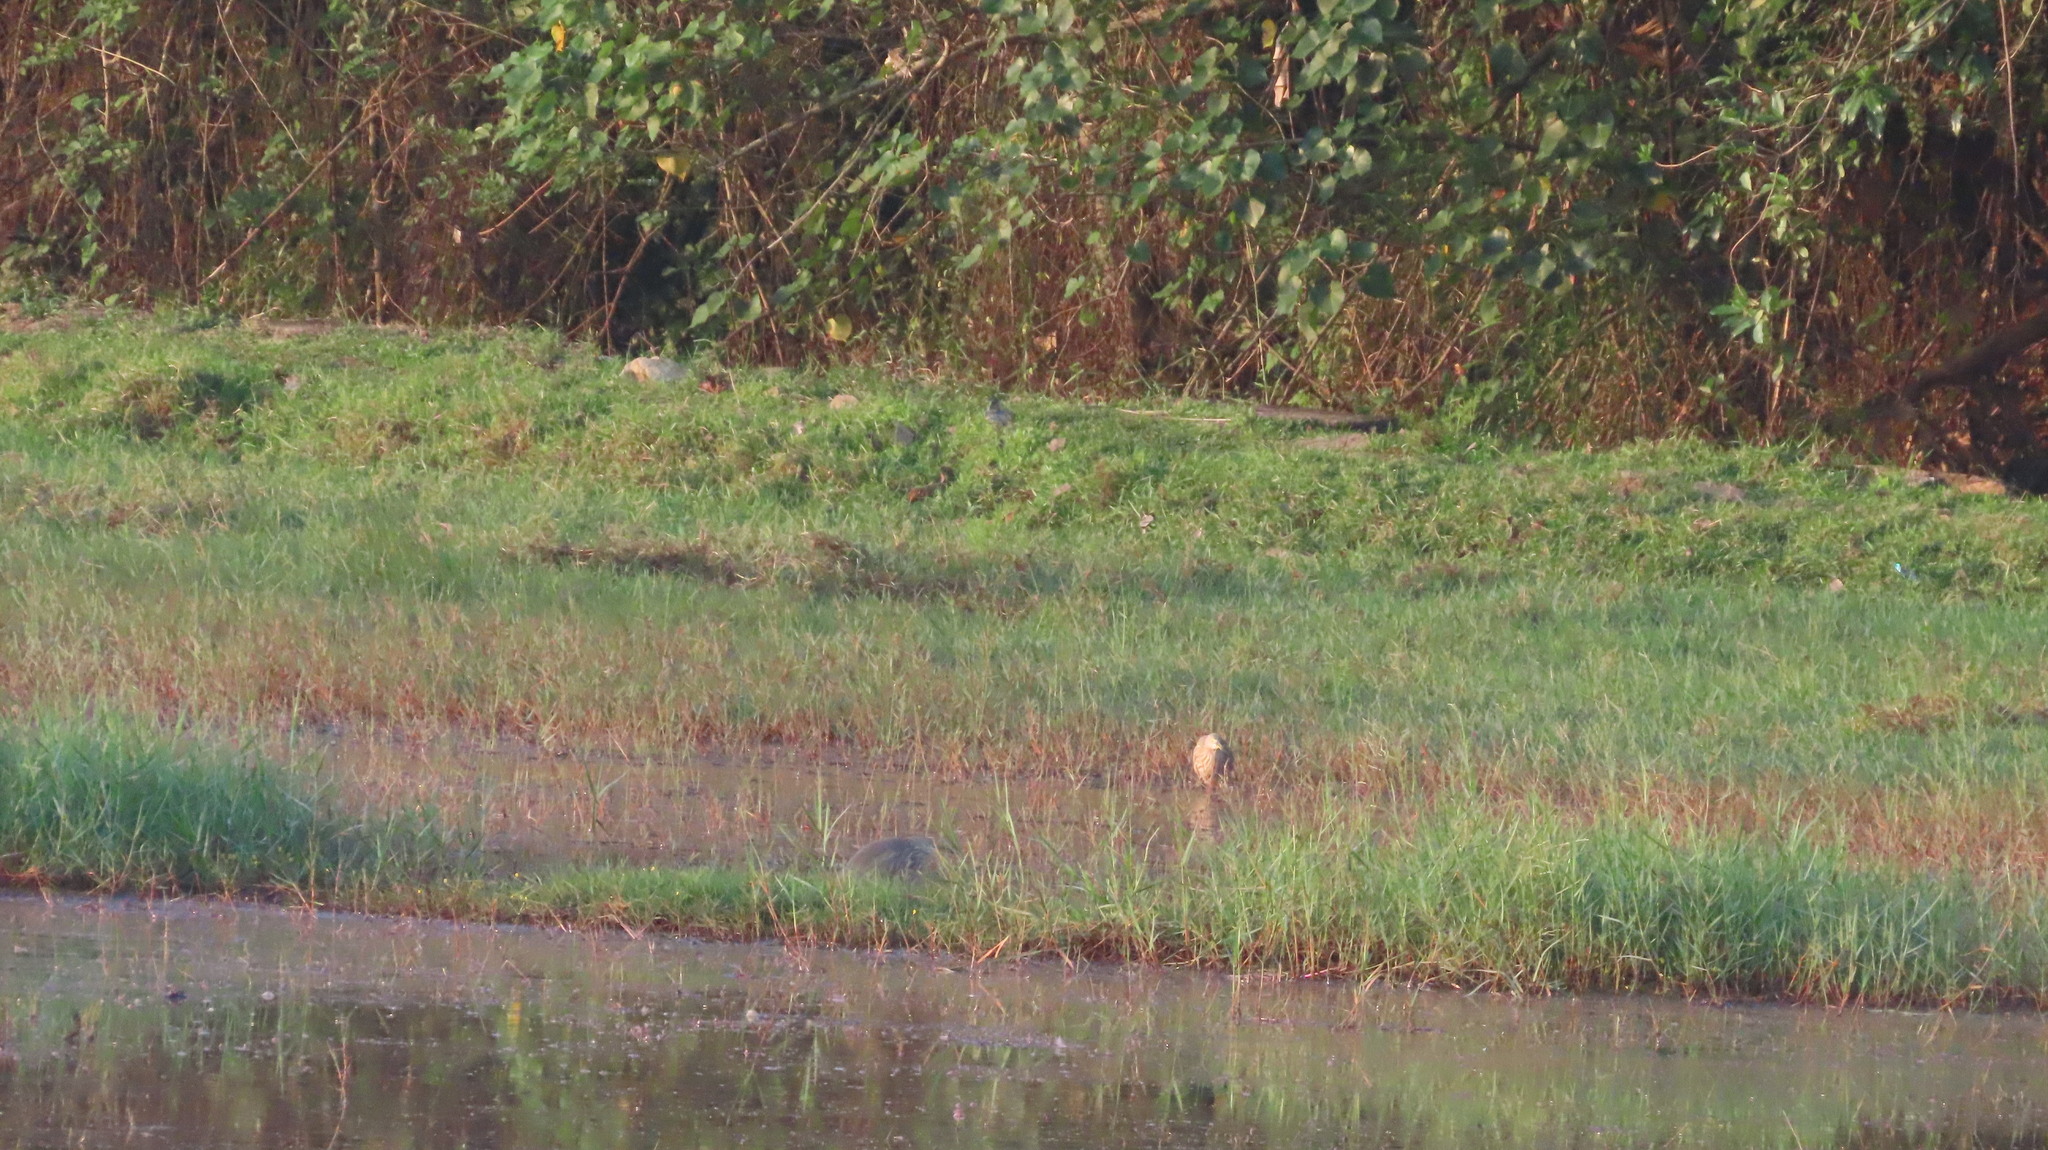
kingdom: Animalia
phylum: Chordata
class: Aves
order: Pelecaniformes
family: Ardeidae
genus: Ardeola
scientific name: Ardeola grayii
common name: Indian pond heron
